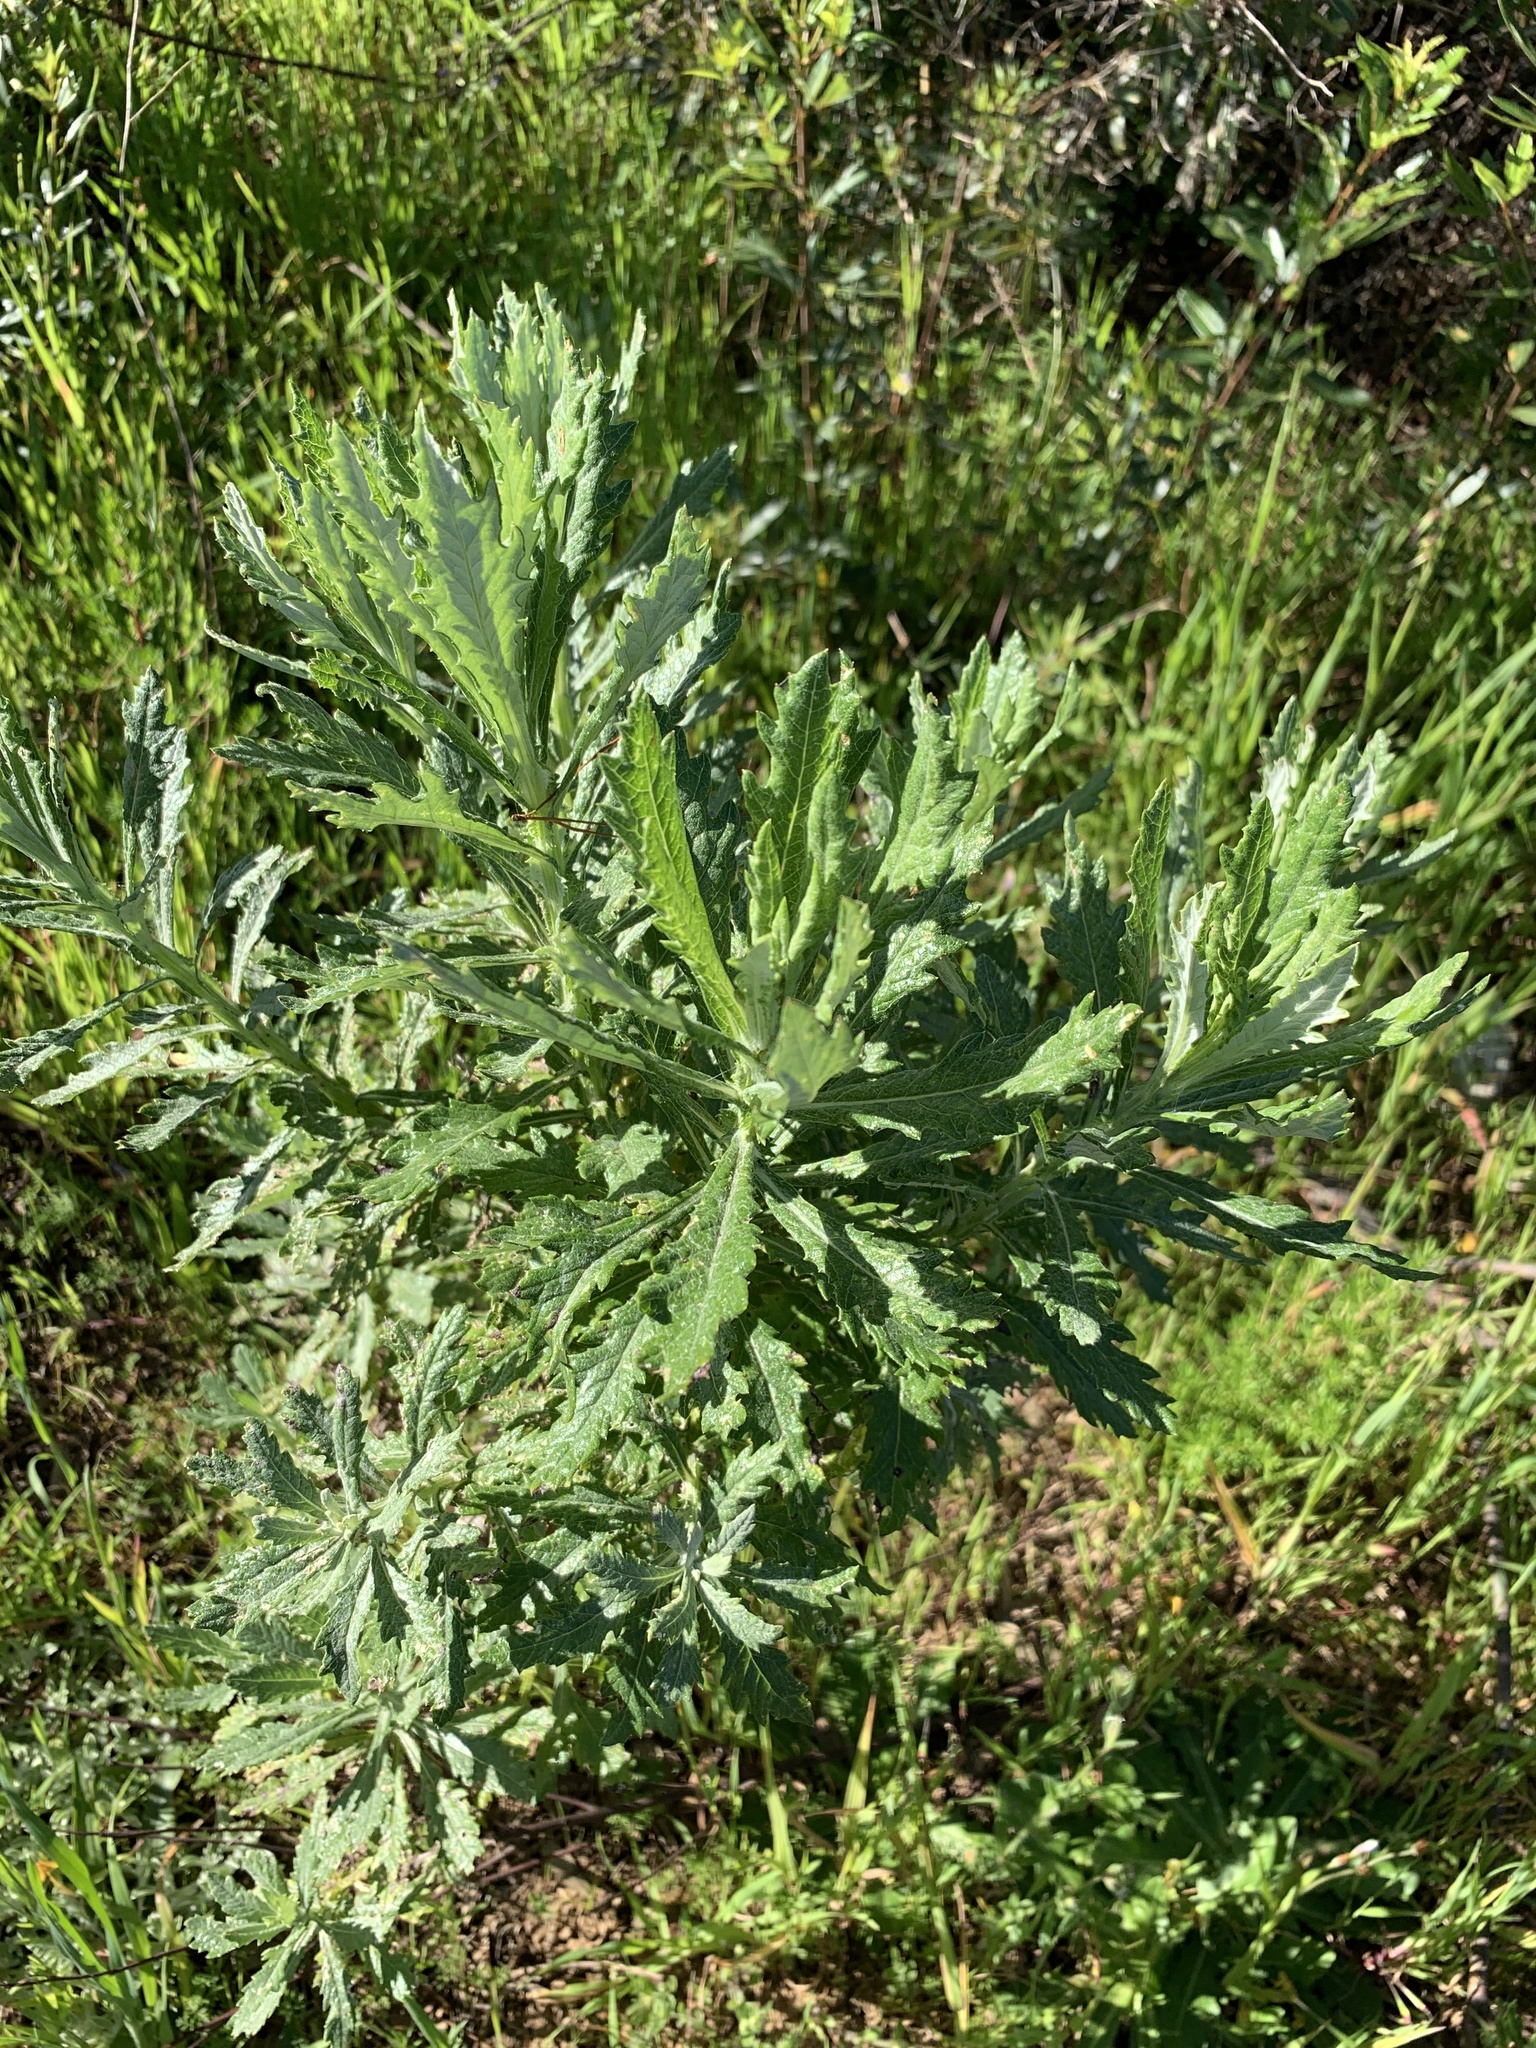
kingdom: Plantae
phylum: Tracheophyta
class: Magnoliopsida
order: Asterales
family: Asteraceae
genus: Senecio
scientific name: Senecio pterophorus
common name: Shoddy ragwort
